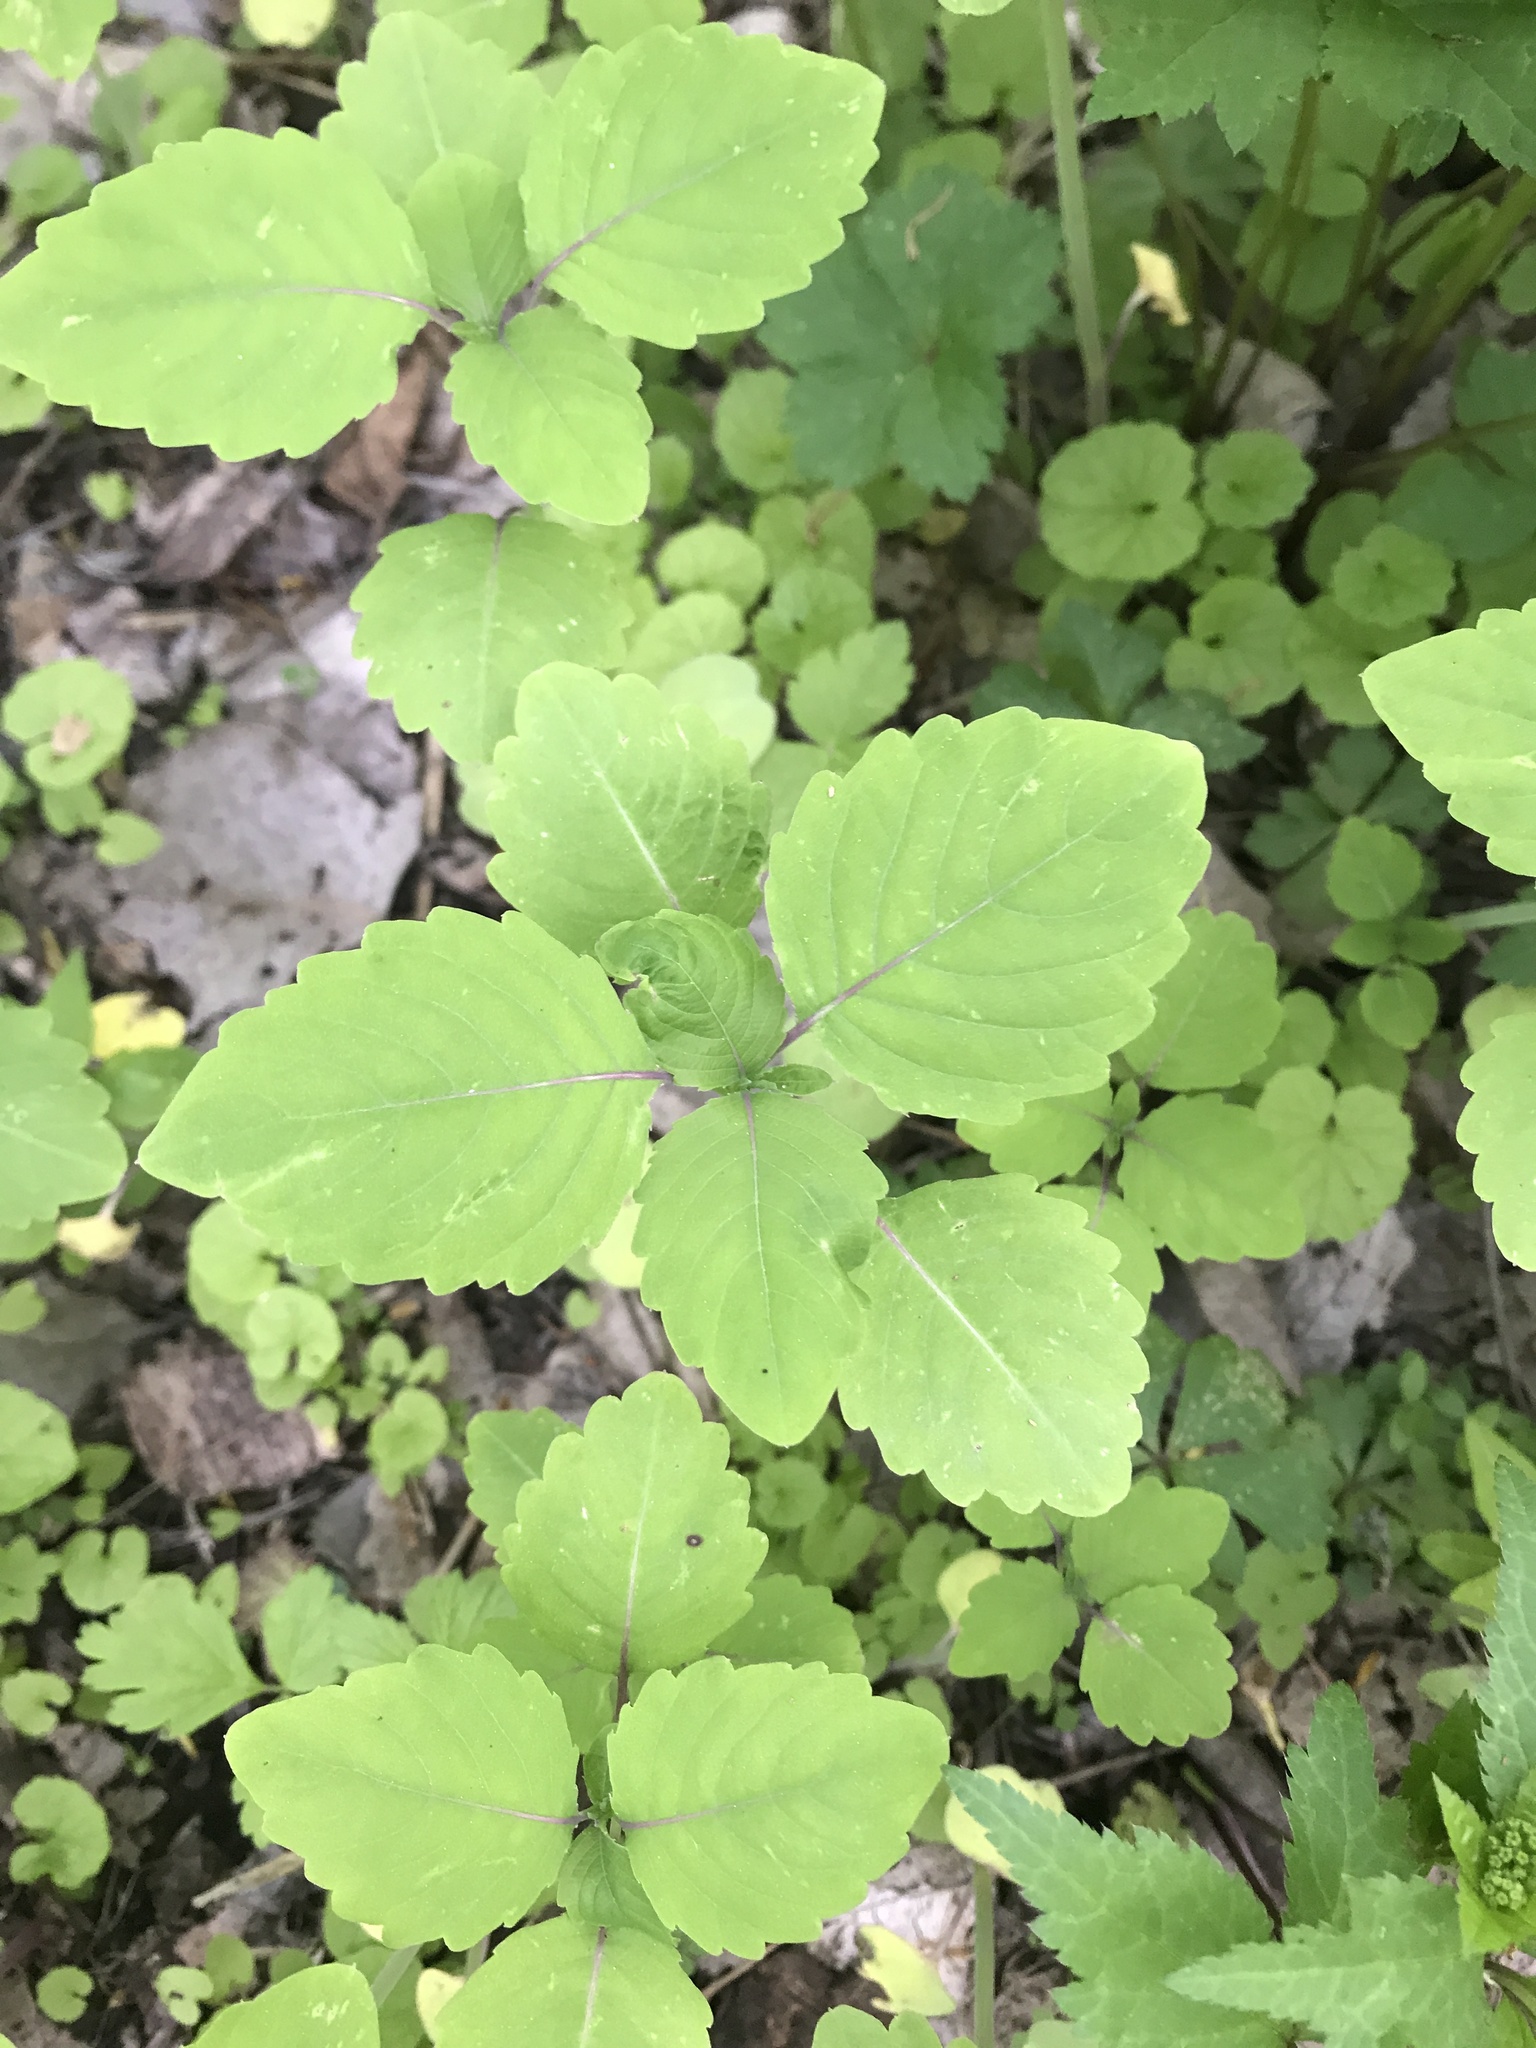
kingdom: Plantae
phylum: Tracheophyta
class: Magnoliopsida
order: Ericales
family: Balsaminaceae
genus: Impatiens
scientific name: Impatiens capensis
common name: Orange balsam
